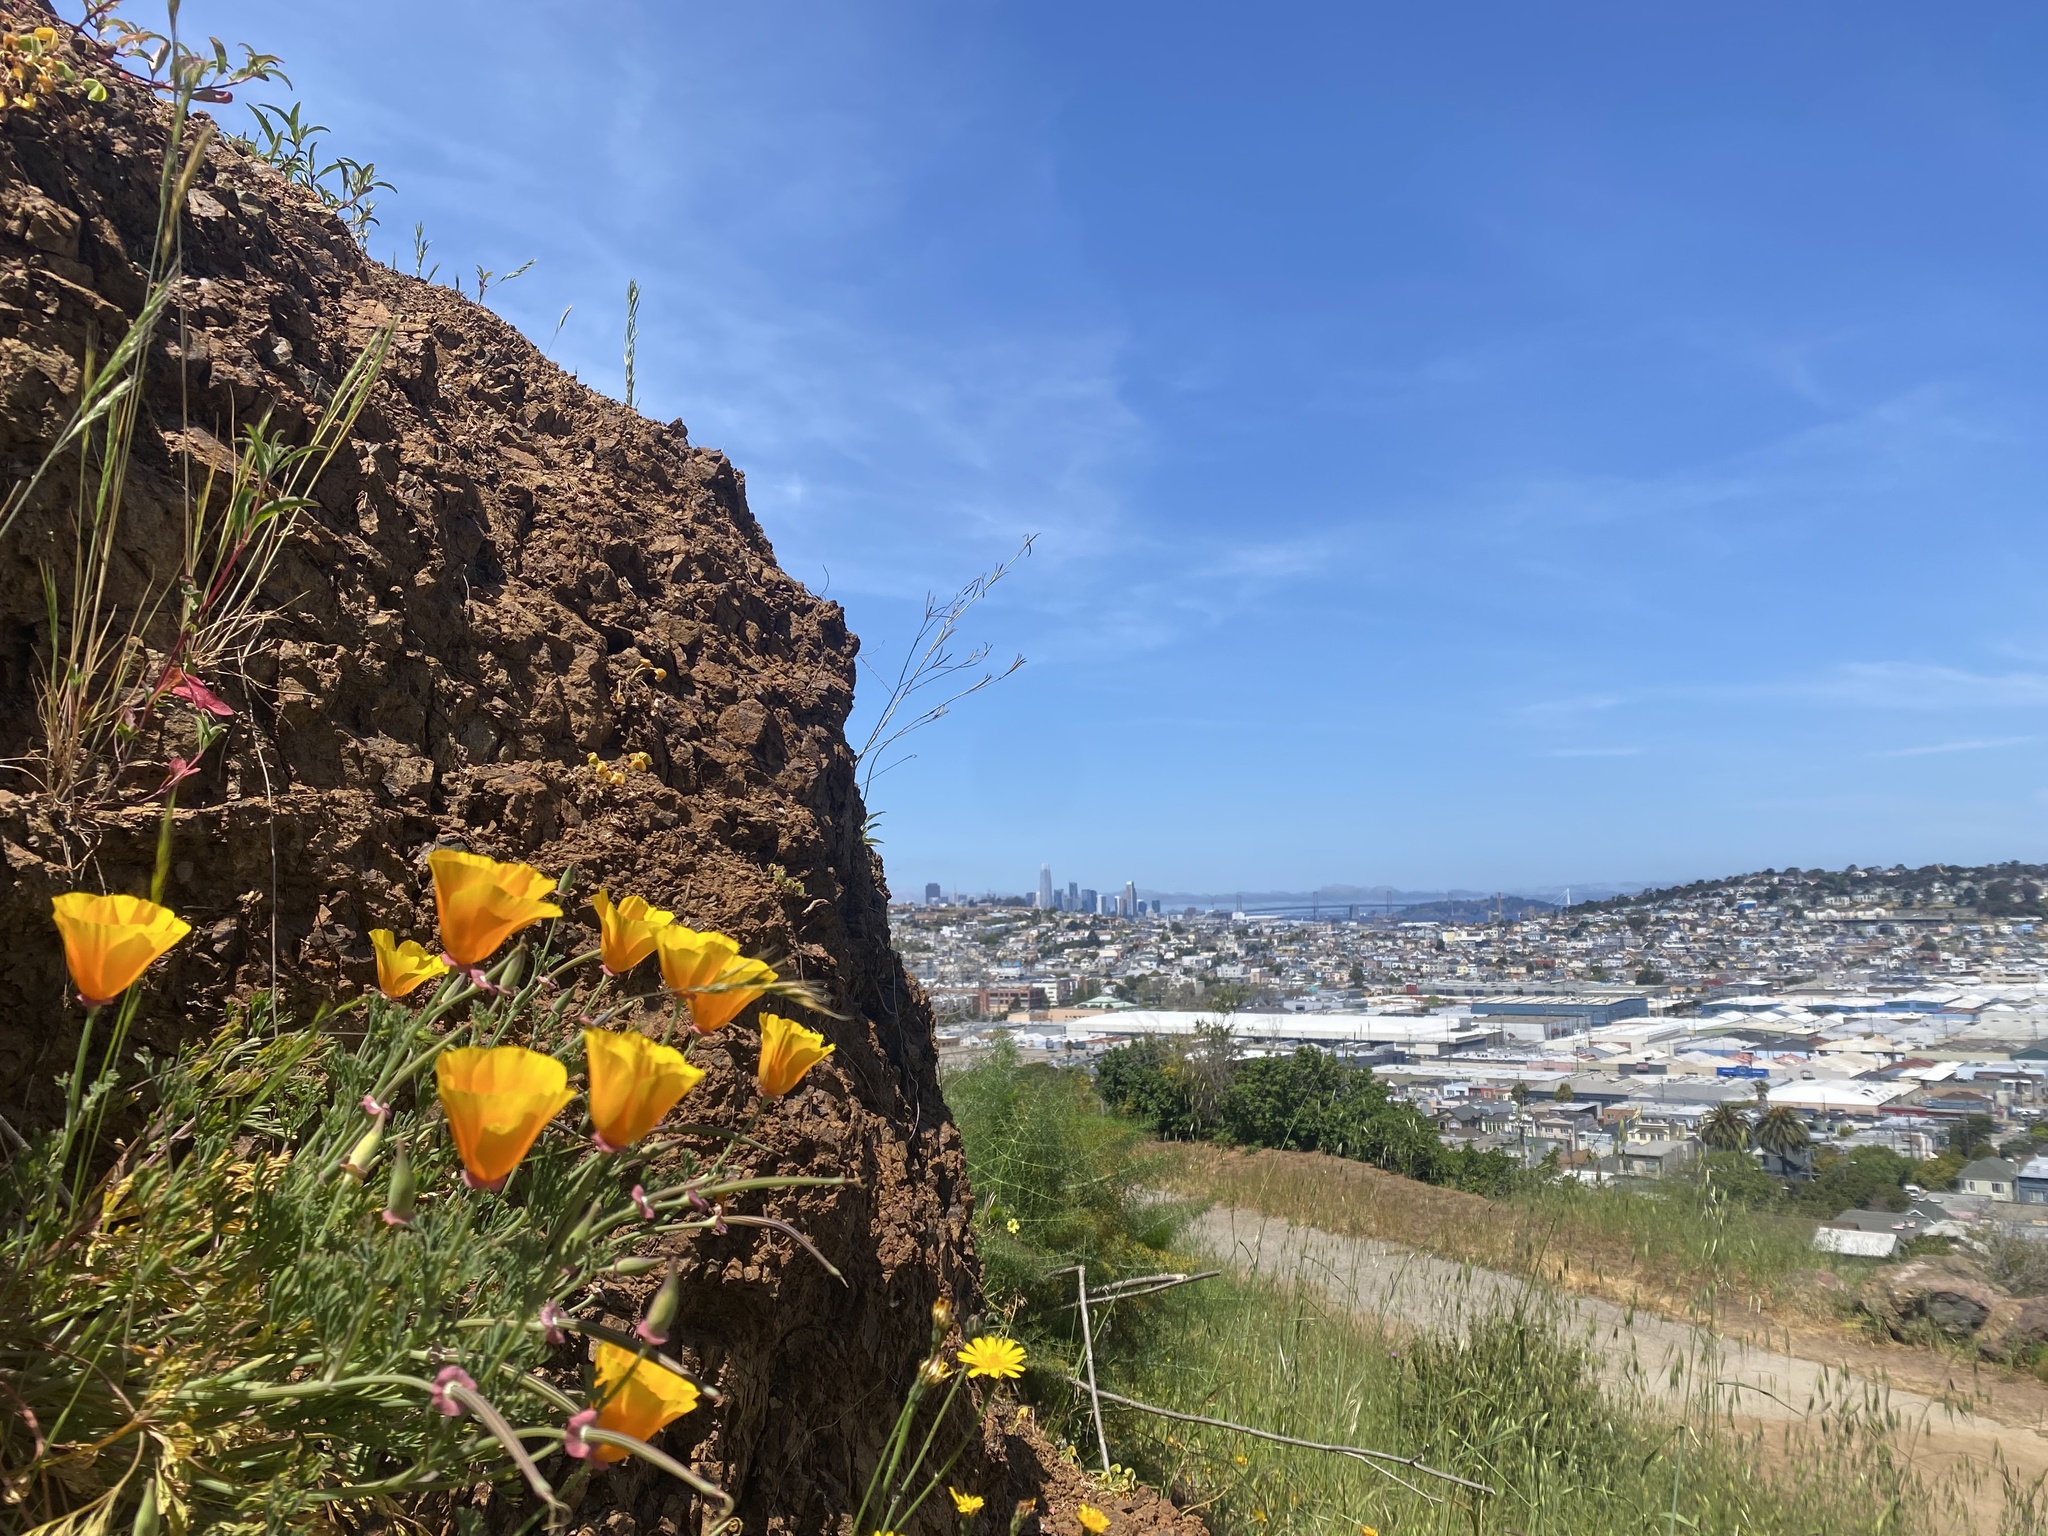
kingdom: Plantae
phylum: Tracheophyta
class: Magnoliopsida
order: Ranunculales
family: Papaveraceae
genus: Eschscholzia
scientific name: Eschscholzia californica
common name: California poppy
